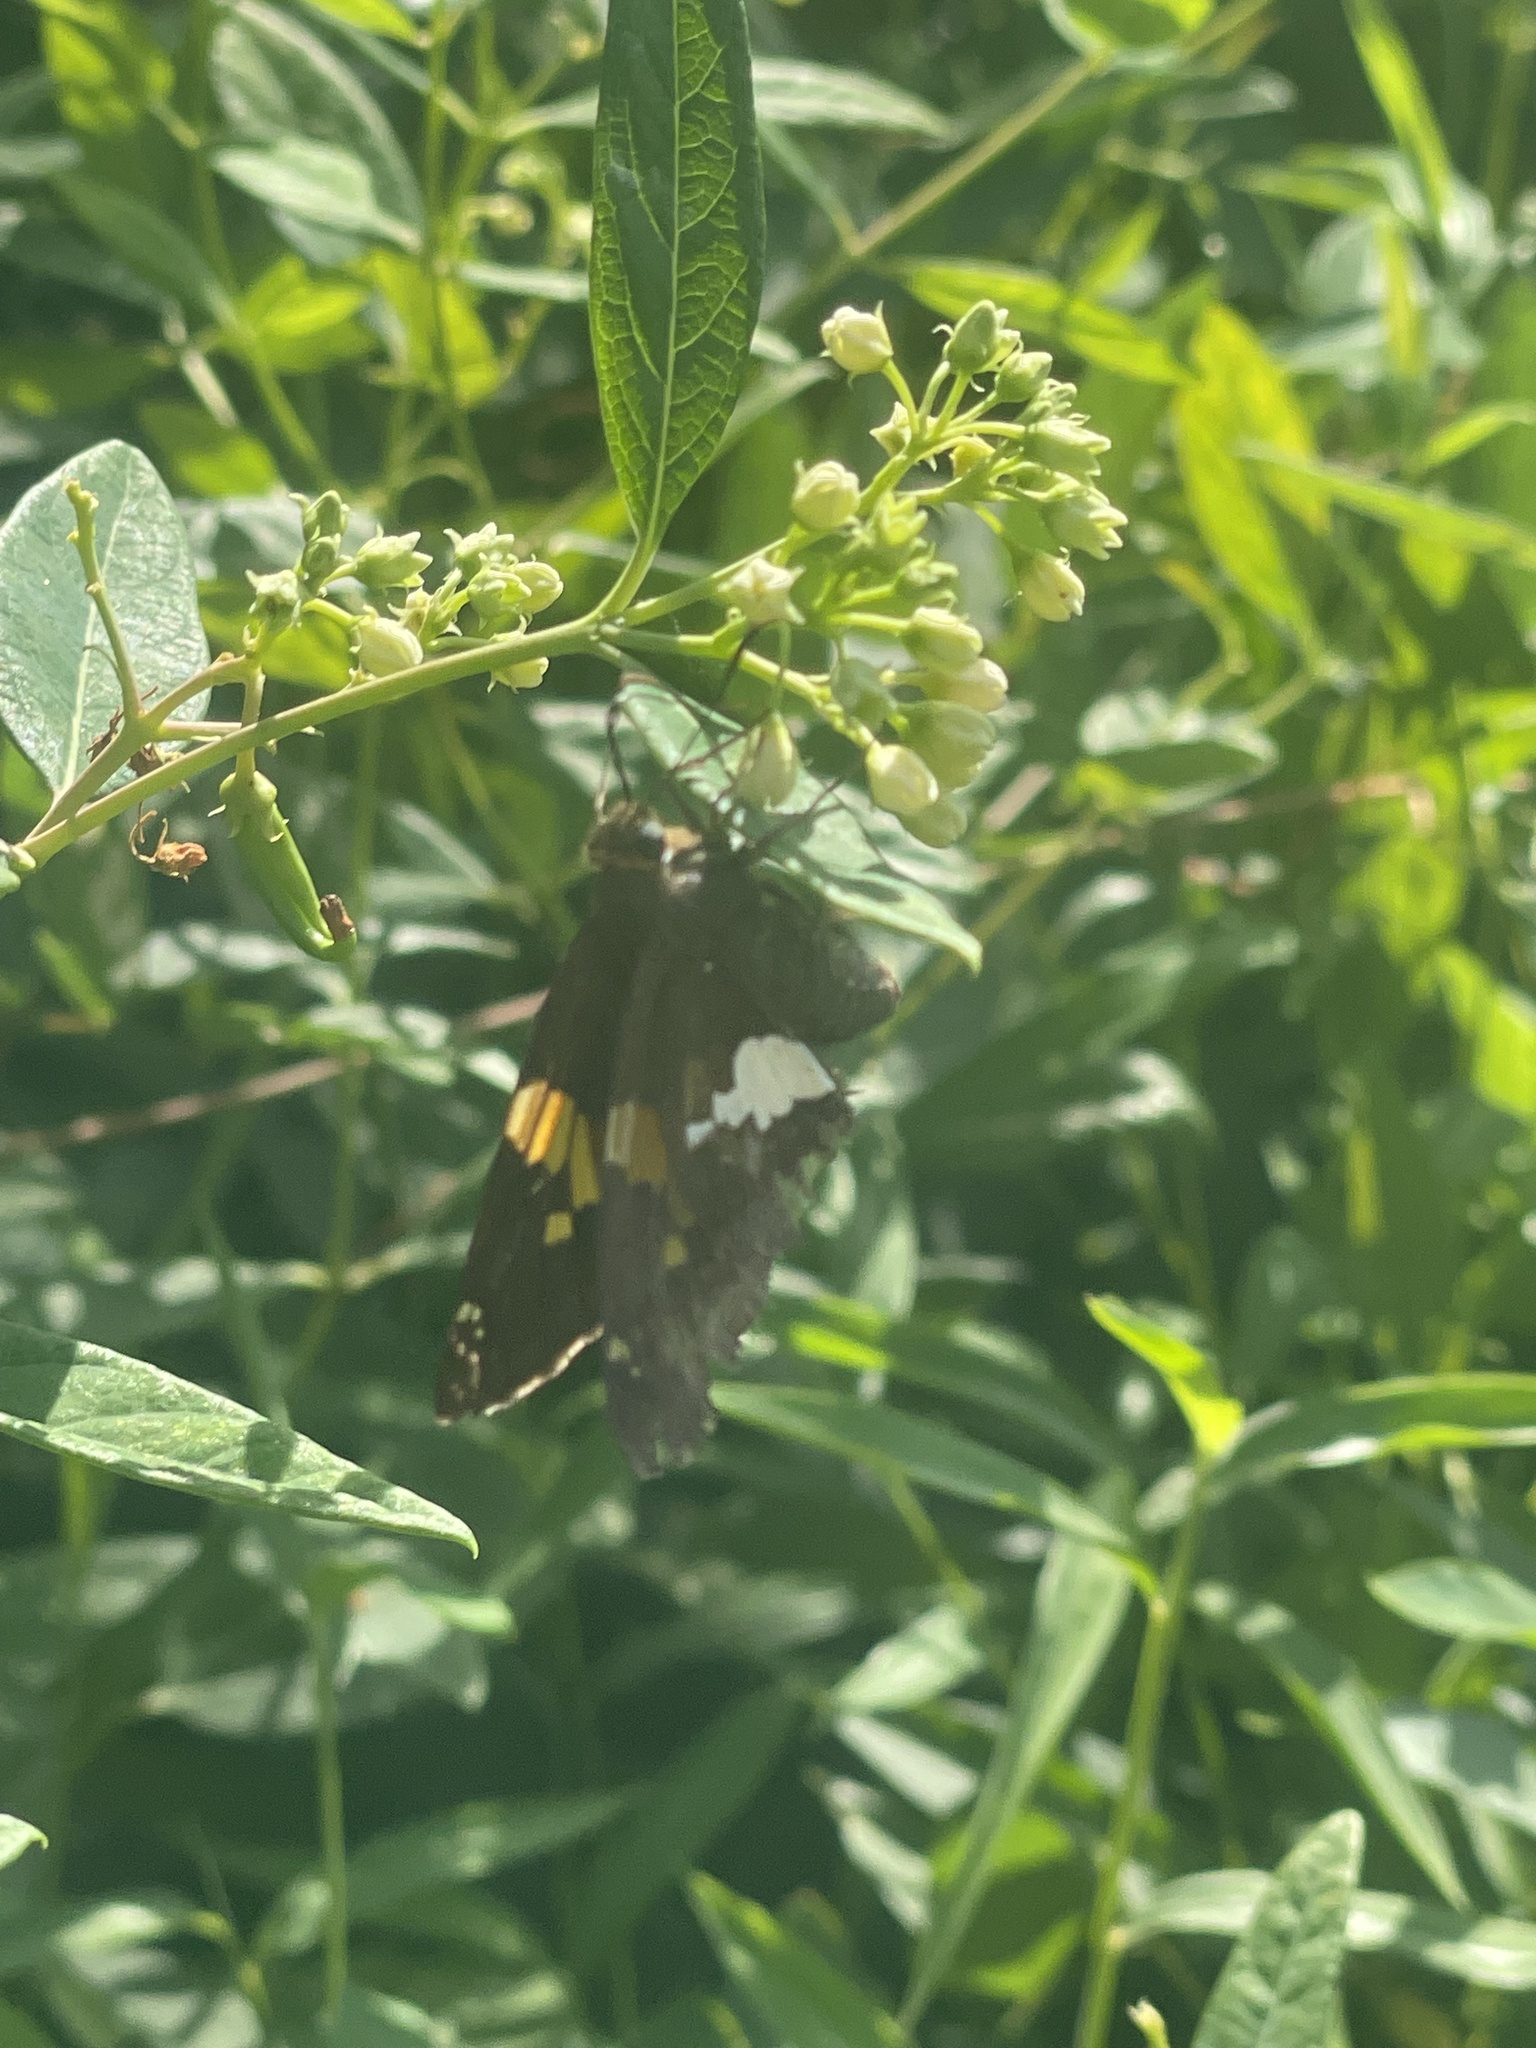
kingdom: Animalia
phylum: Arthropoda
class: Insecta
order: Lepidoptera
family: Hesperiidae
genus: Epargyreus
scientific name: Epargyreus clarus
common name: Silver-spotted skipper
